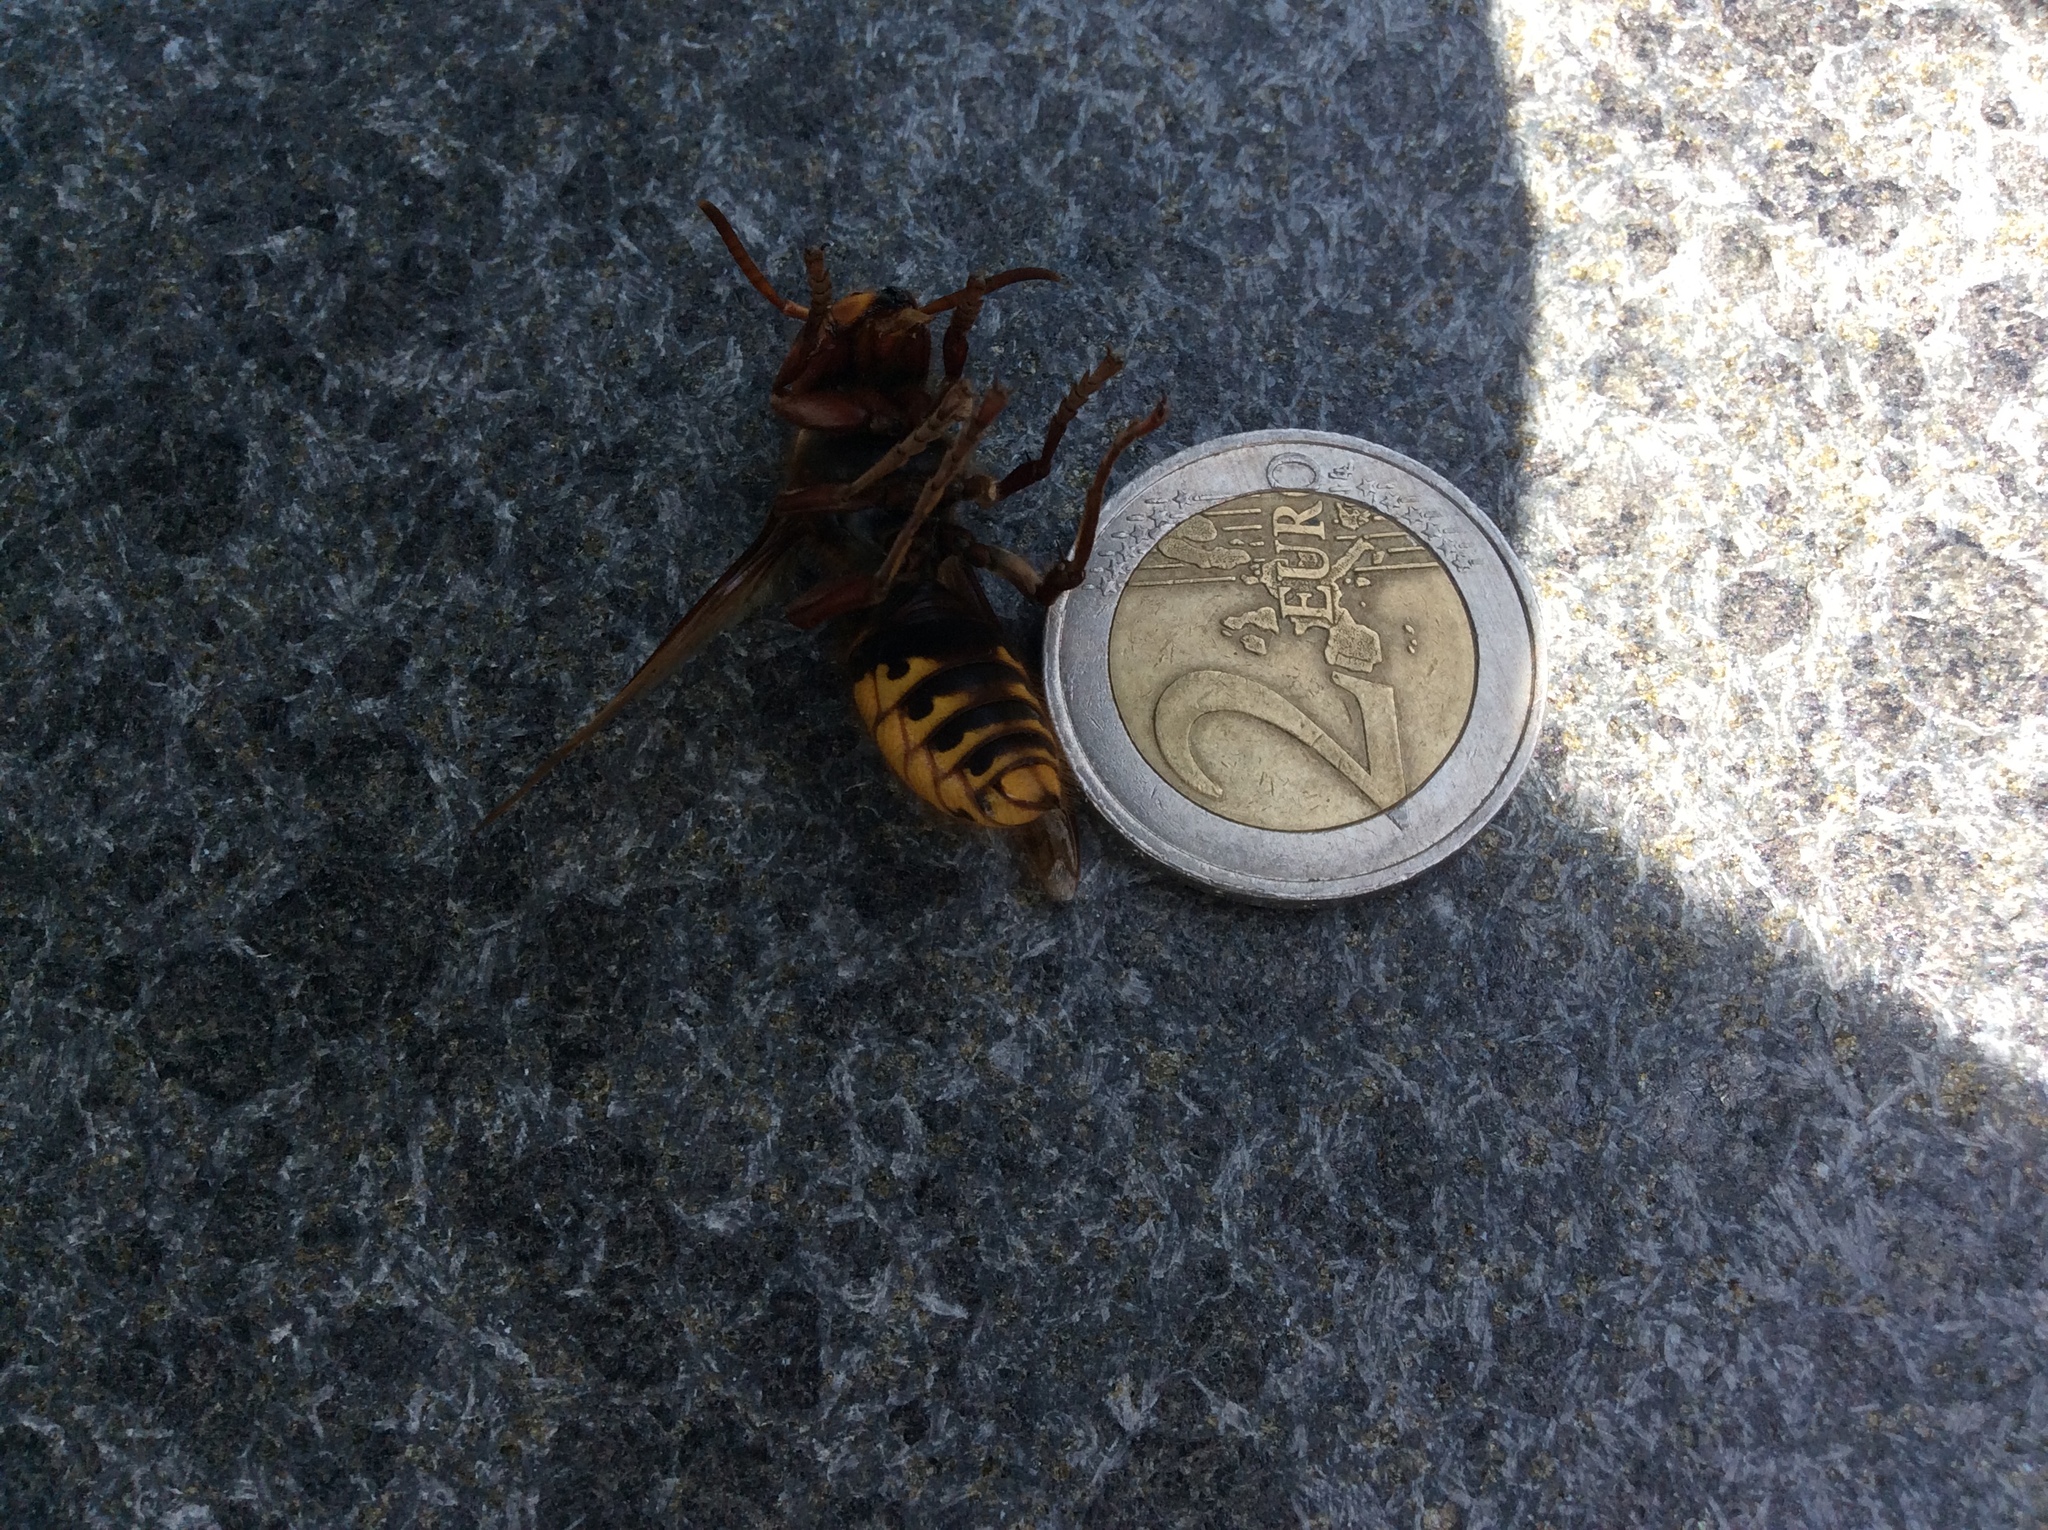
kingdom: Animalia
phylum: Arthropoda
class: Insecta
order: Hymenoptera
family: Vespidae
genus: Vespa
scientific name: Vespa crabro
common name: Hornet
